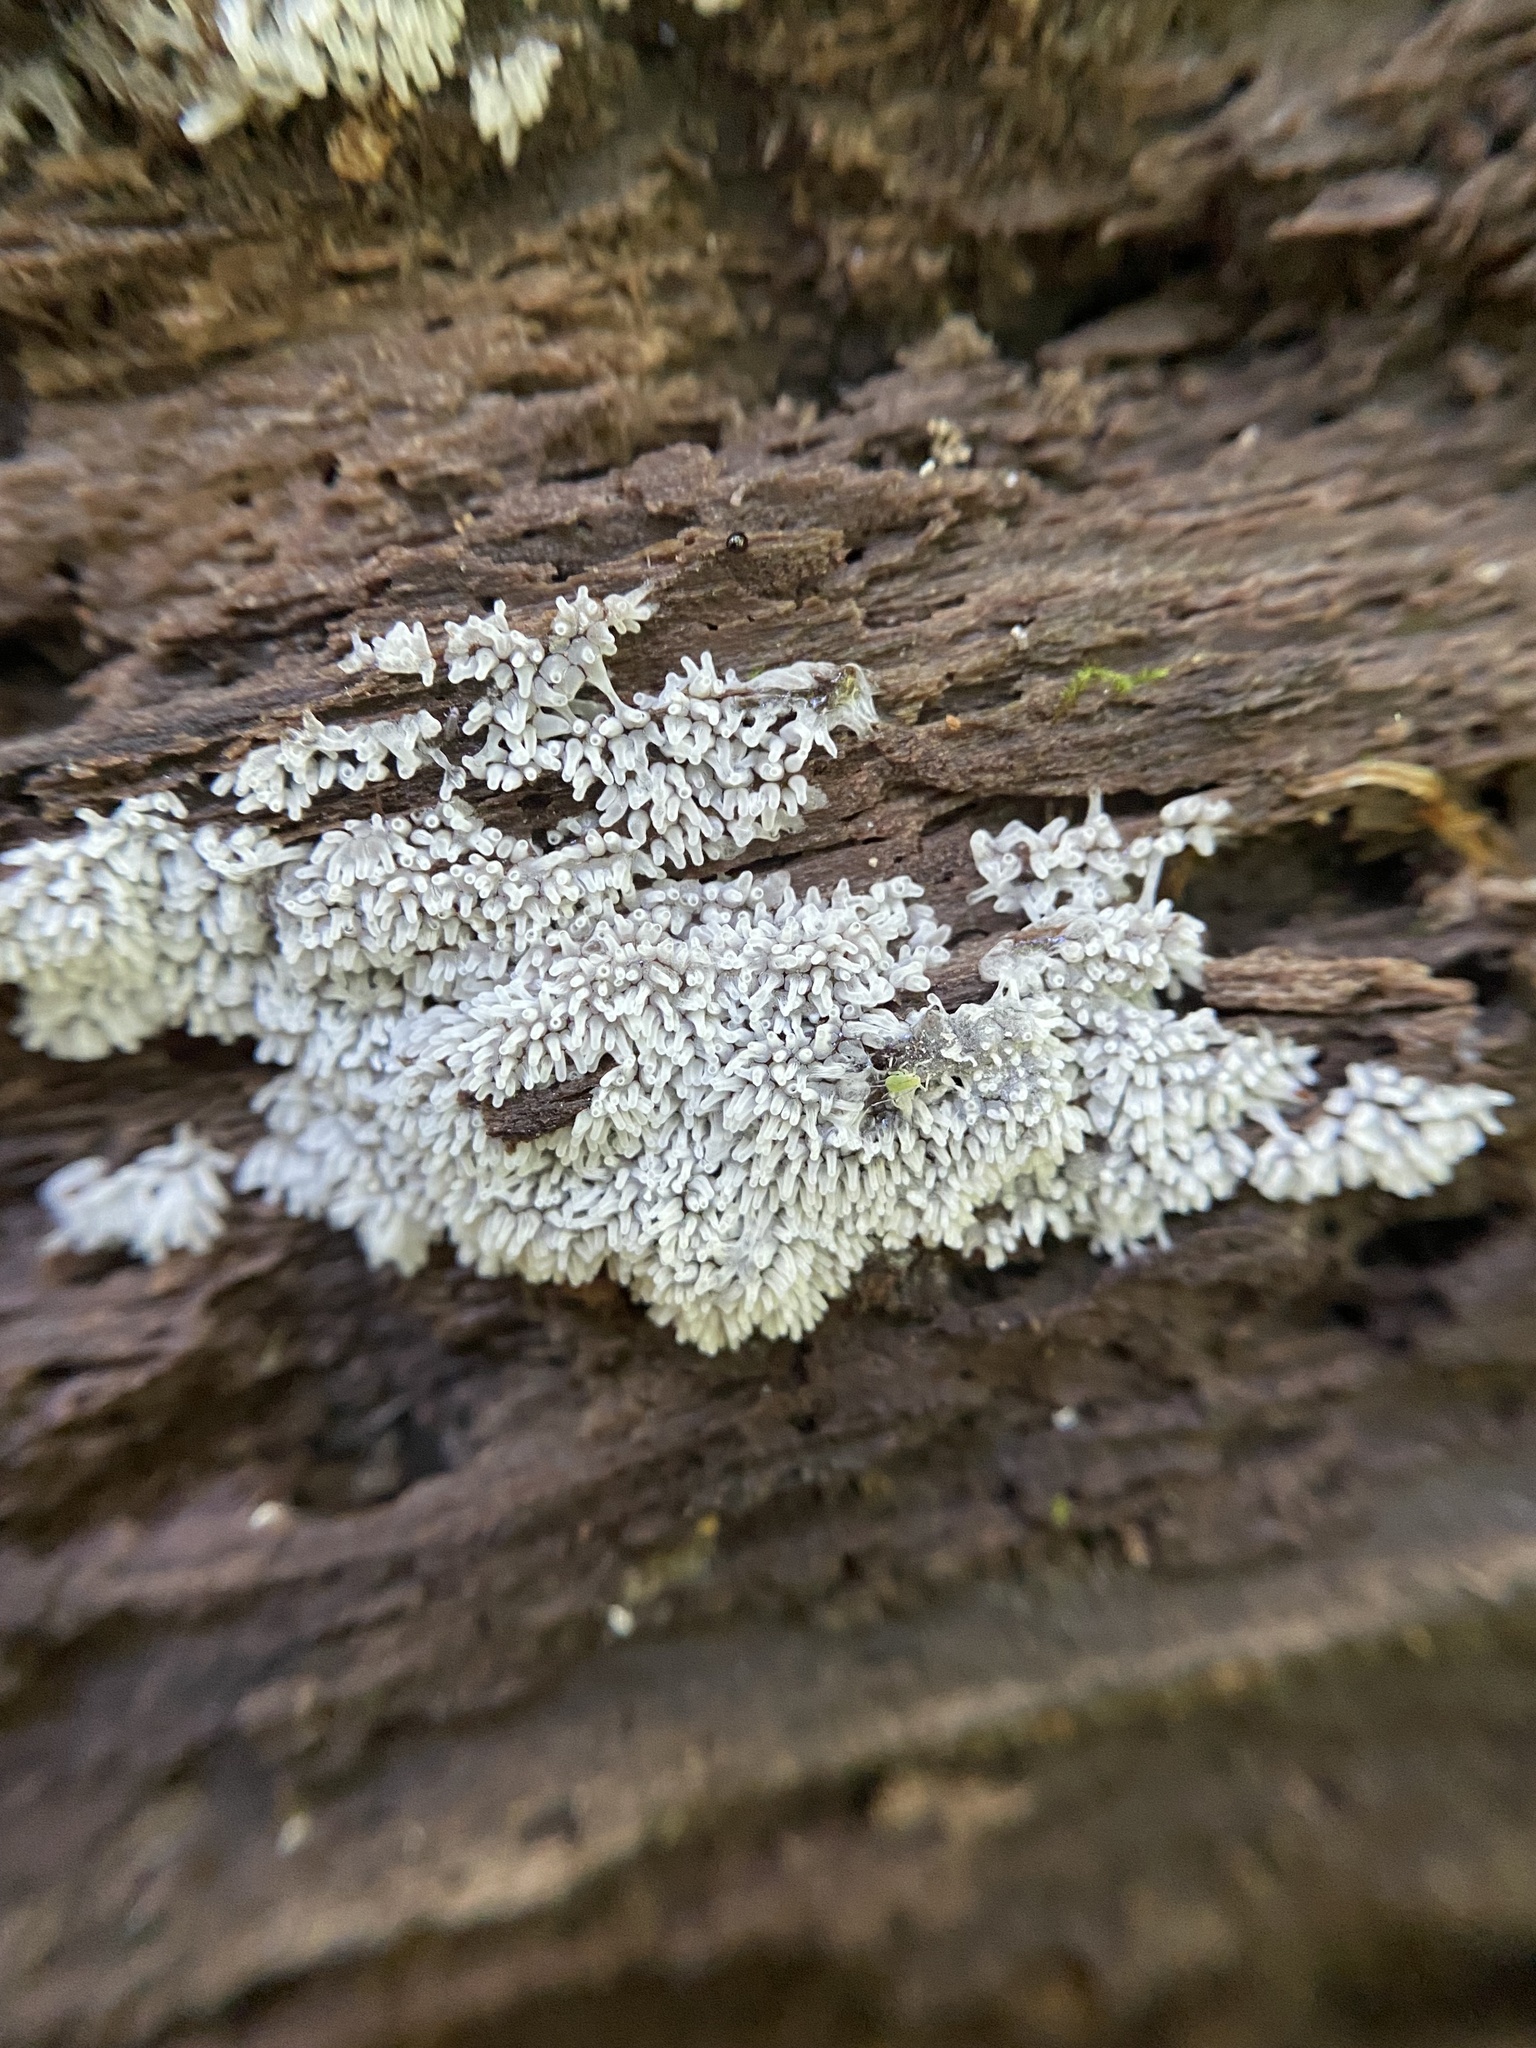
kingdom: Protozoa
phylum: Mycetozoa
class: Protosteliomycetes
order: Ceratiomyxales
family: Ceratiomyxaceae
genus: Ceratiomyxa
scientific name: Ceratiomyxa fruticulosa
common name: Honeycomb coral slime mold
